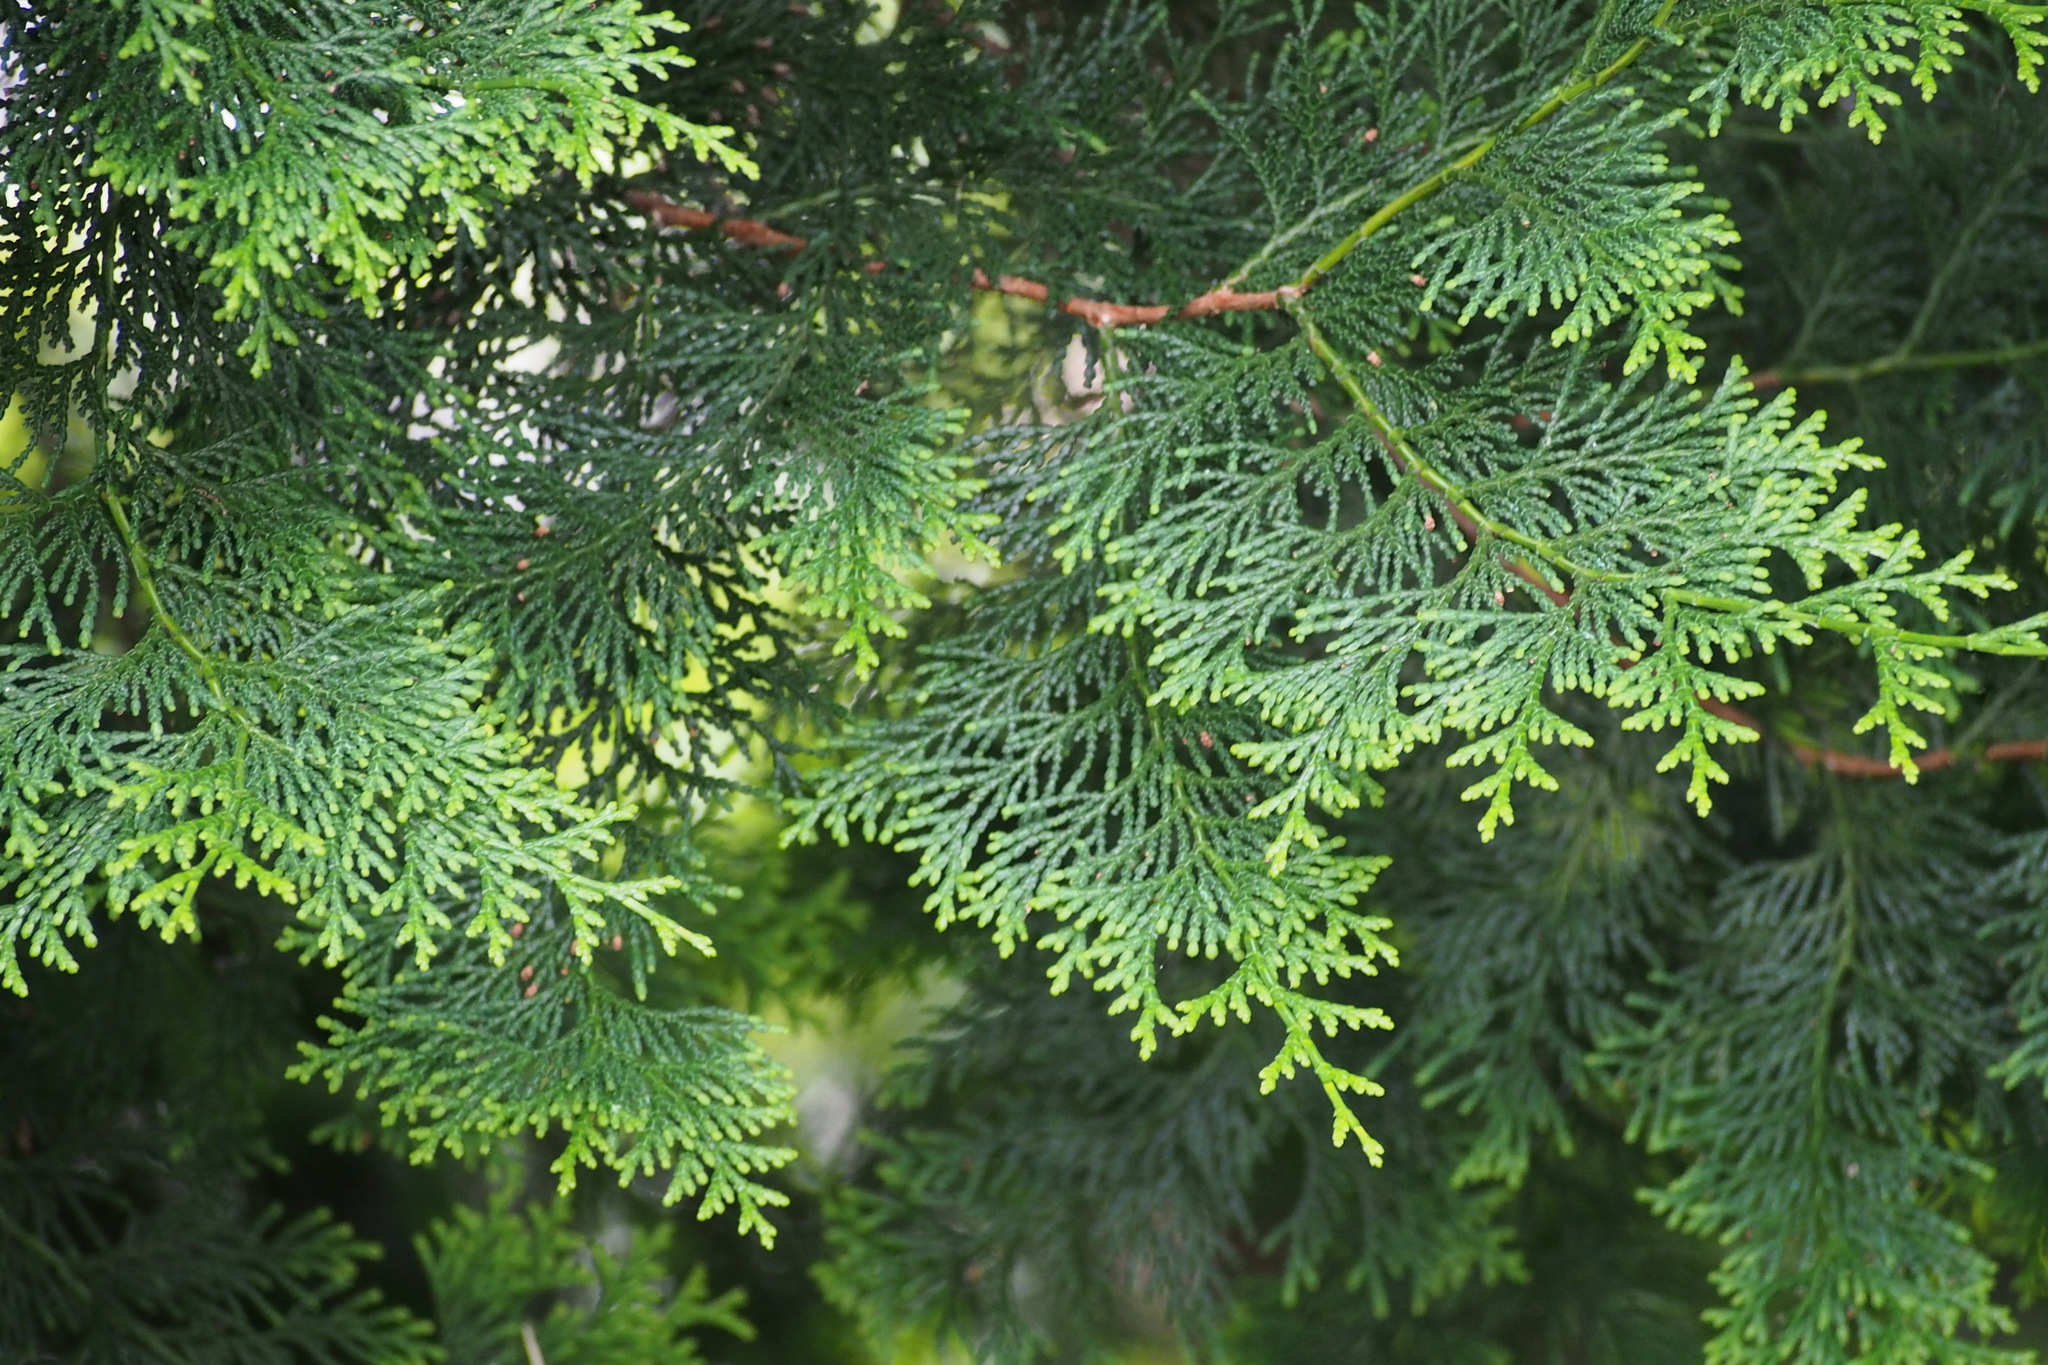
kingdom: Plantae
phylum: Tracheophyta
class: Pinopsida
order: Pinales
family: Cupressaceae
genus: Chamaecyparis
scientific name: Chamaecyparis obtusa
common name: Hinoki false cypress
